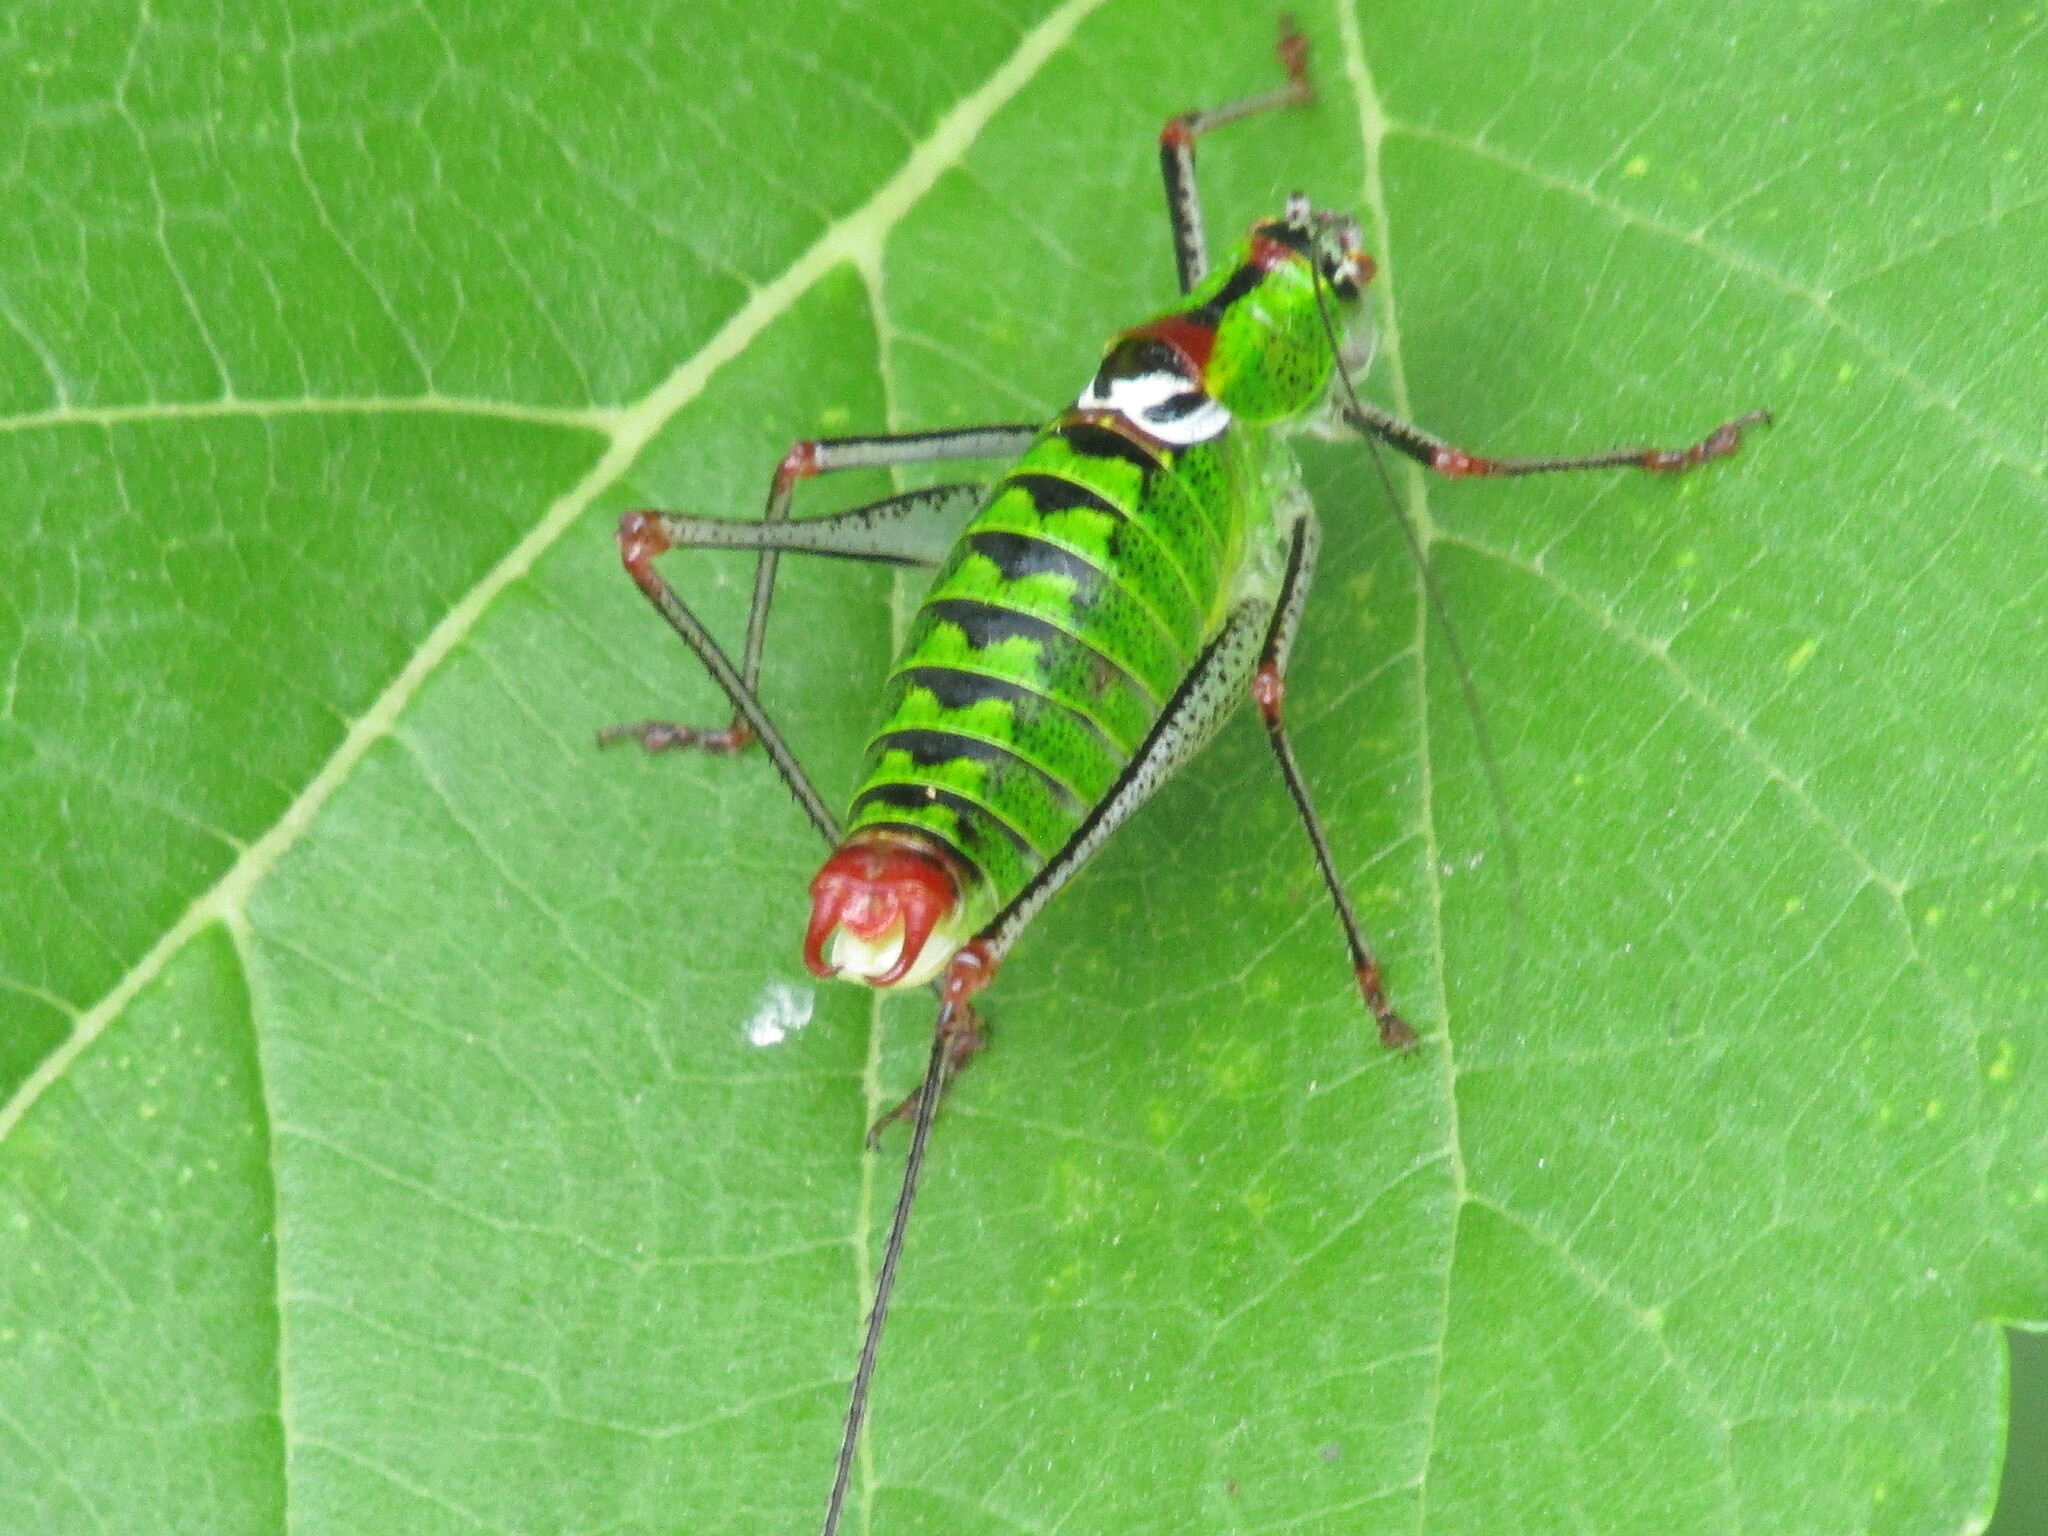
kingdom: Animalia
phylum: Arthropoda
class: Insecta
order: Orthoptera
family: Tettigoniidae
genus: Poecilimon
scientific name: Poecilimon thoracicus
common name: Bellied bright bush-cricket
